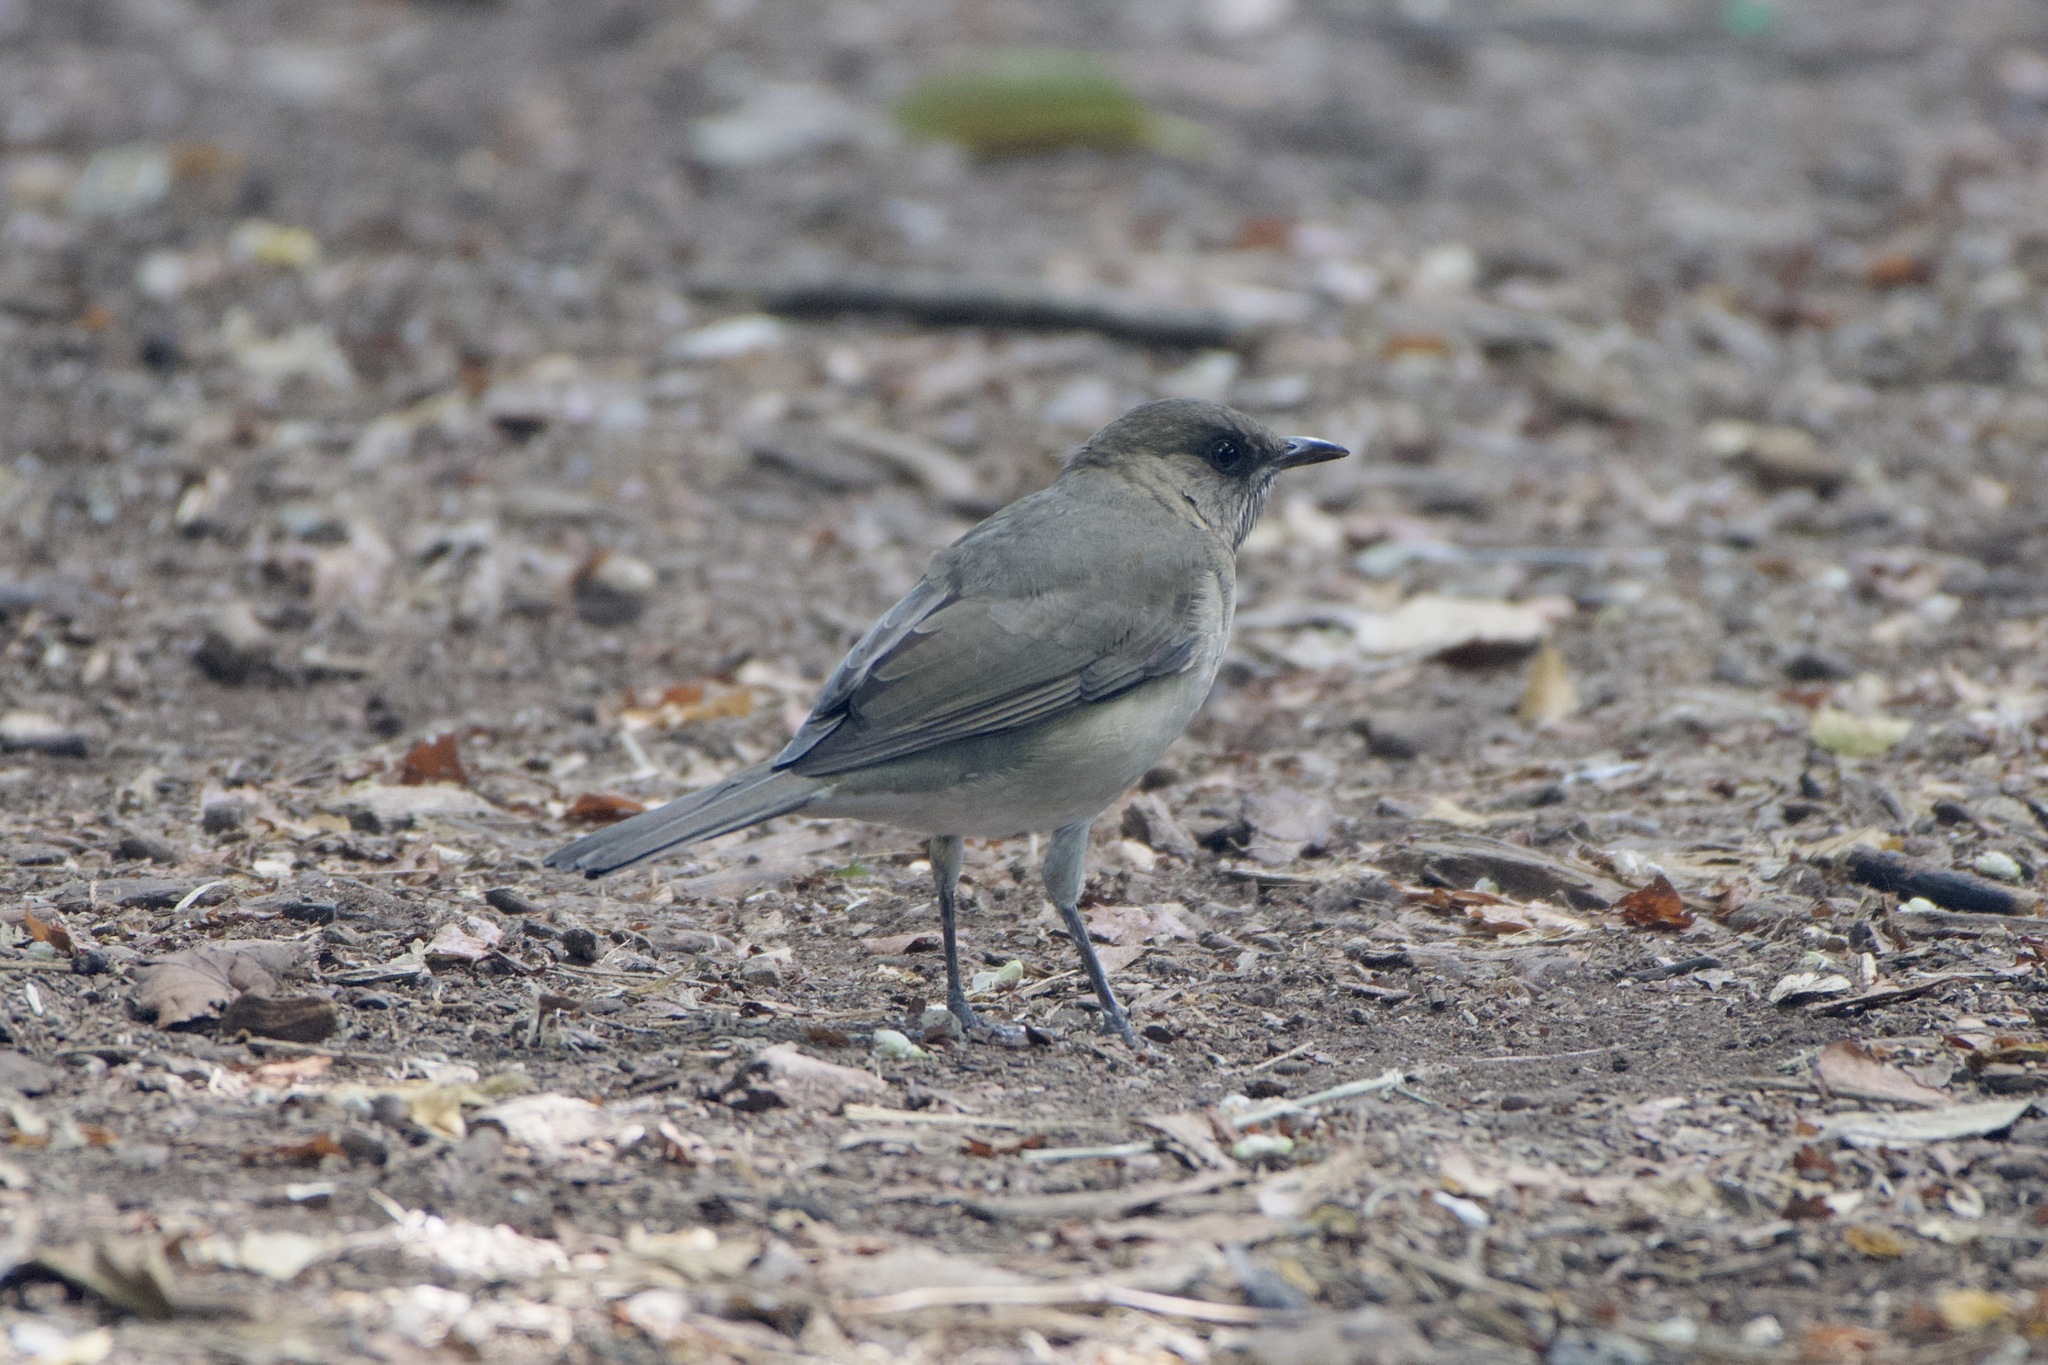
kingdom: Animalia
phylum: Chordata
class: Aves
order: Passeriformes
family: Turdidae
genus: Turdus
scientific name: Turdus amaurochalinus
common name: Creamy-bellied thrush
